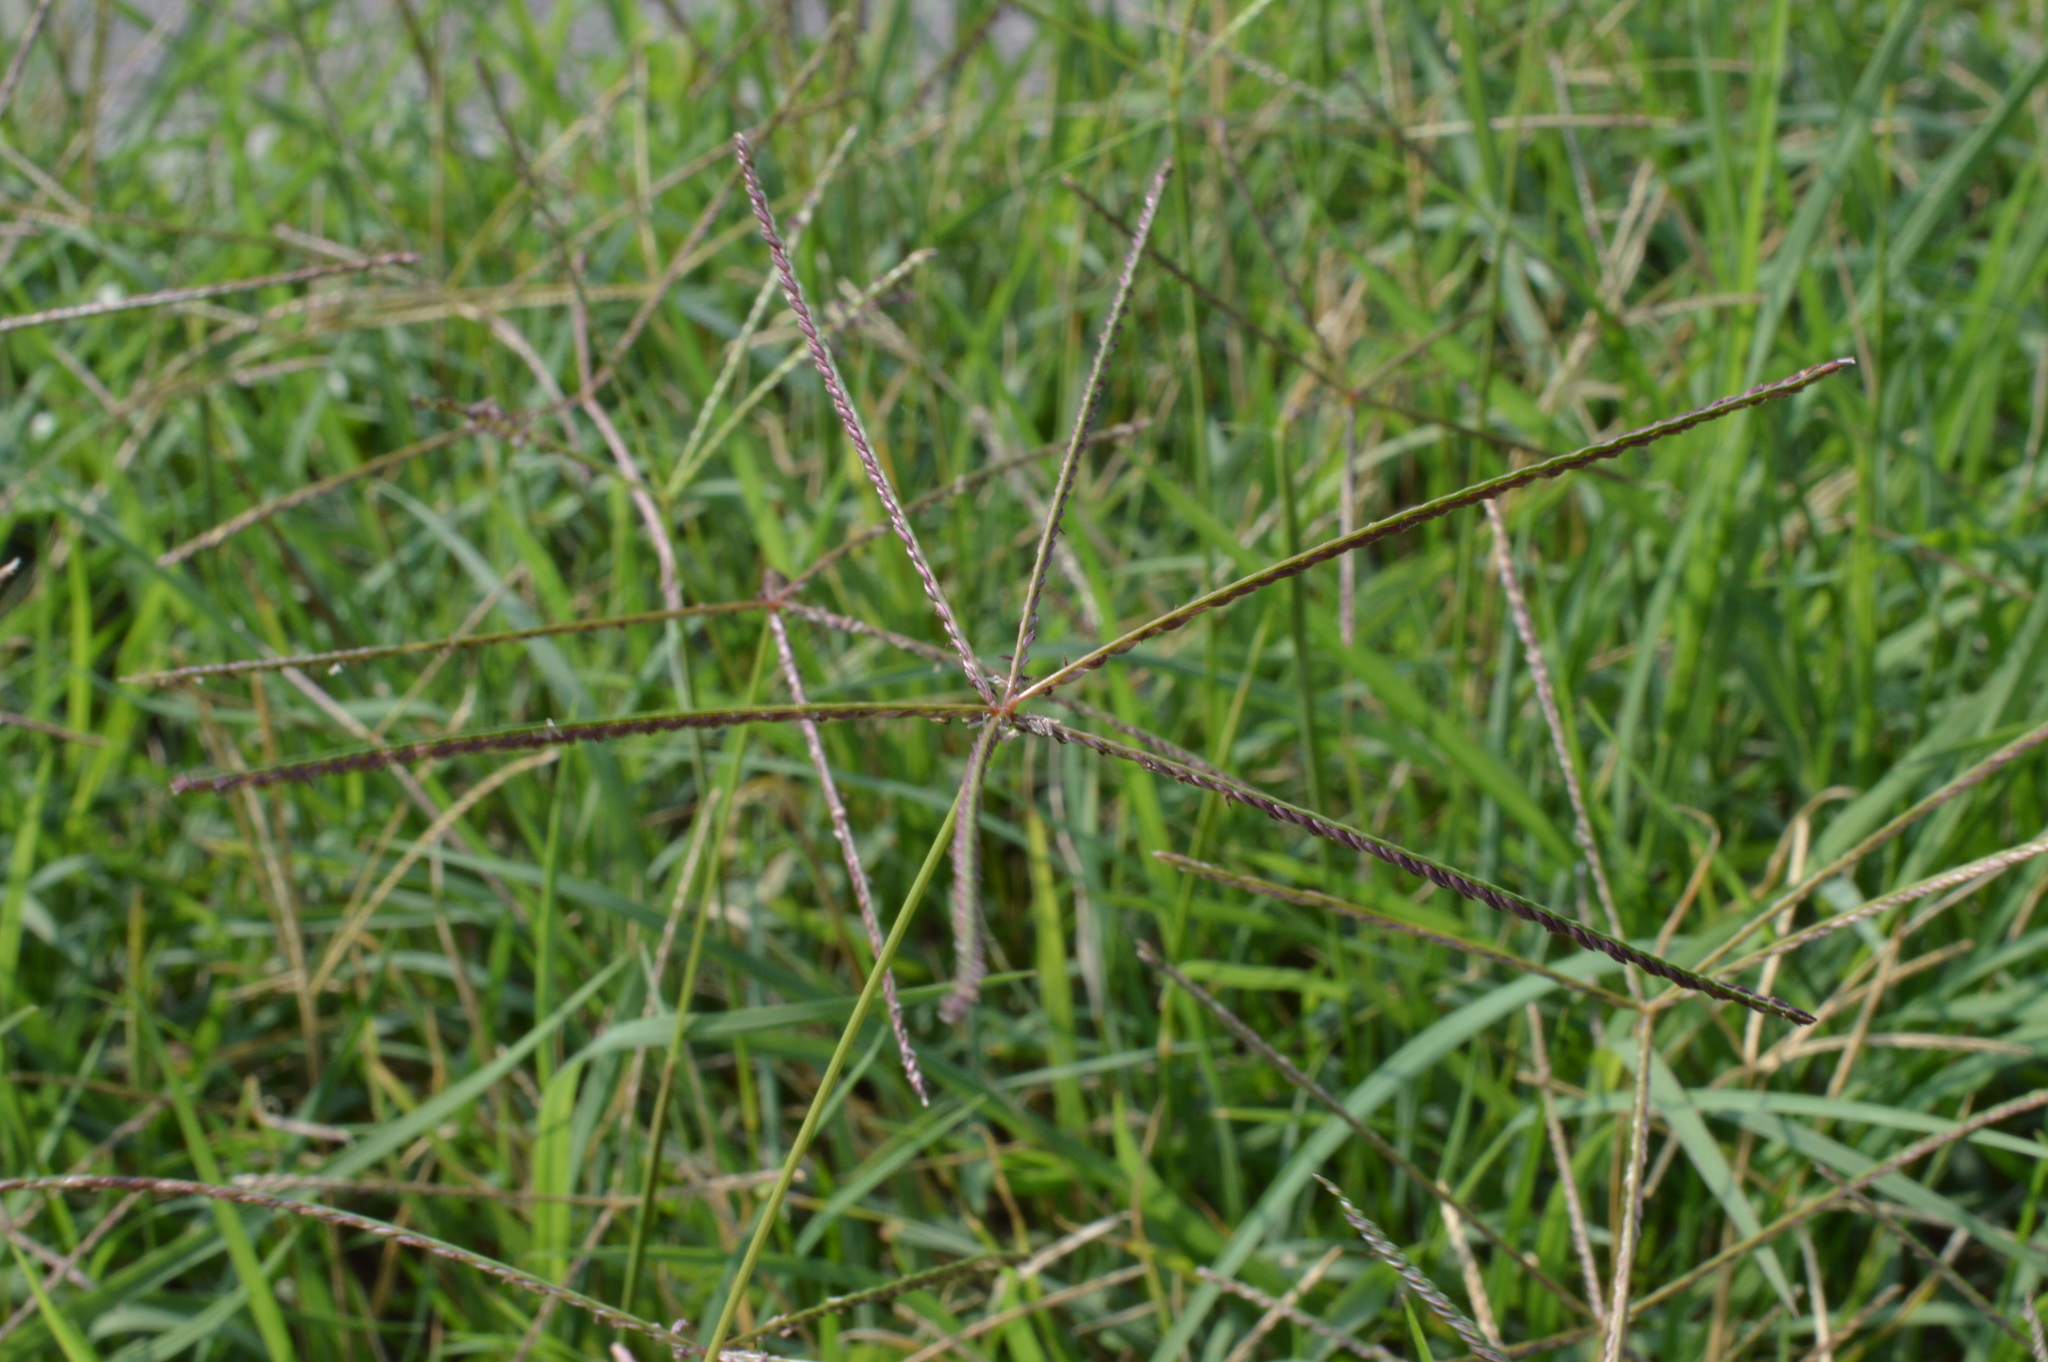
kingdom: Plantae
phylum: Tracheophyta
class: Liliopsida
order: Poales
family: Poaceae
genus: Cynodon
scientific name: Cynodon dactylon
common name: Bermuda grass
